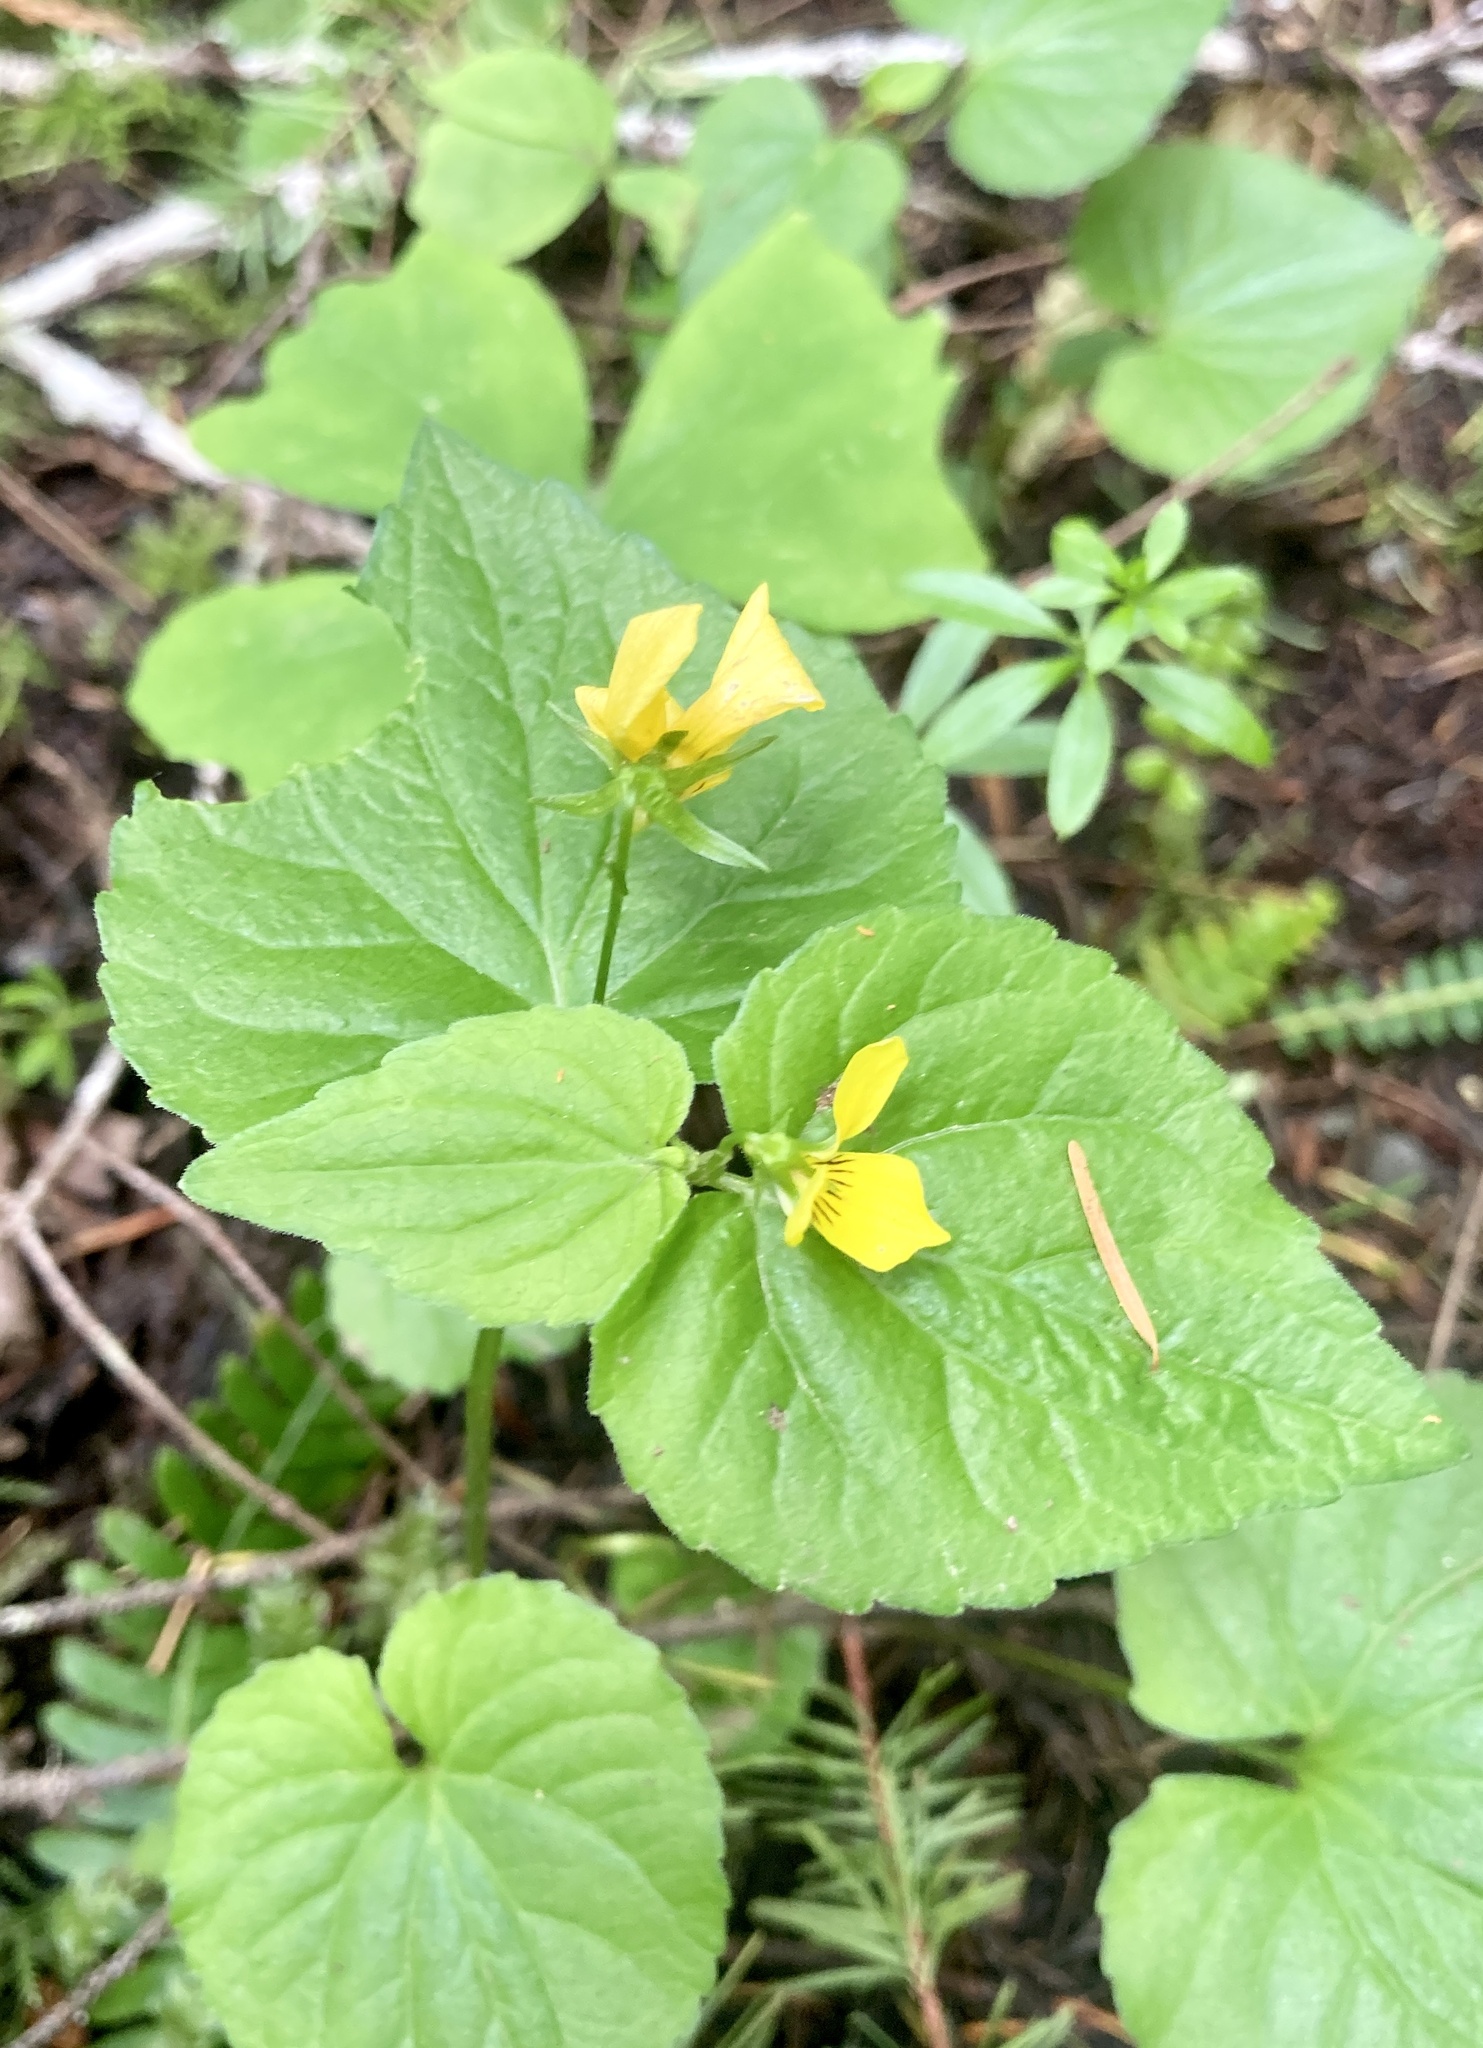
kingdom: Plantae
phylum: Tracheophyta
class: Magnoliopsida
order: Malpighiales
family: Violaceae
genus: Viola
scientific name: Viola glabella
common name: Stream violet
